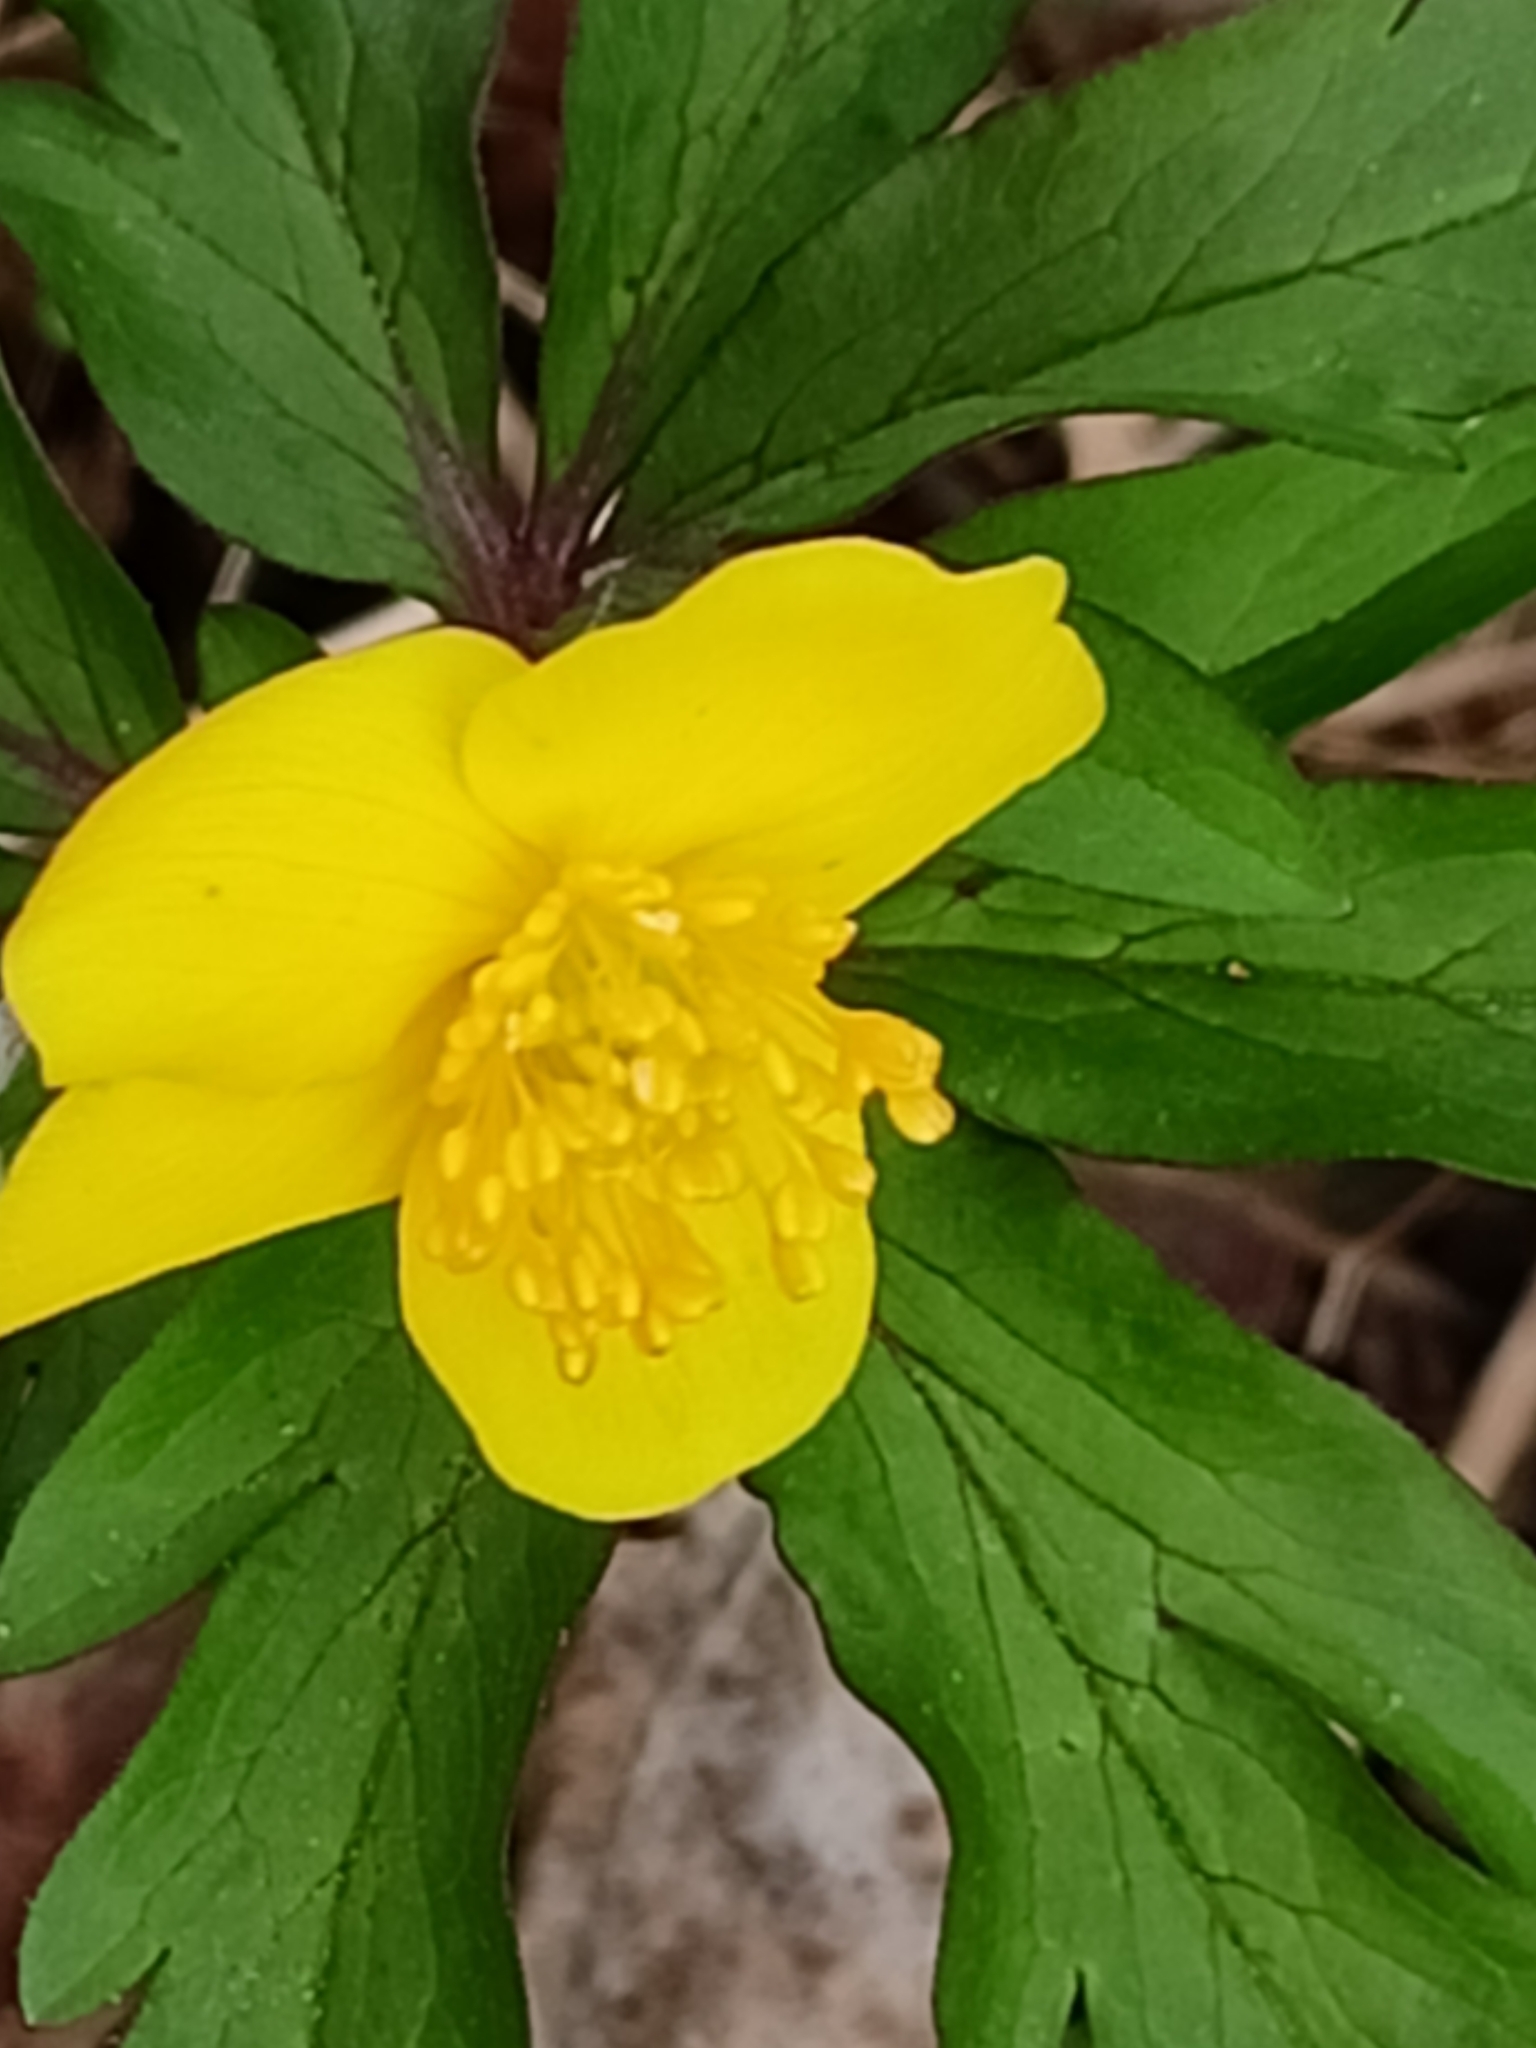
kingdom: Plantae
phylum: Tracheophyta
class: Magnoliopsida
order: Ranunculales
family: Ranunculaceae
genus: Anemone
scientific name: Anemone ranunculoides
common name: Yellow anemone
